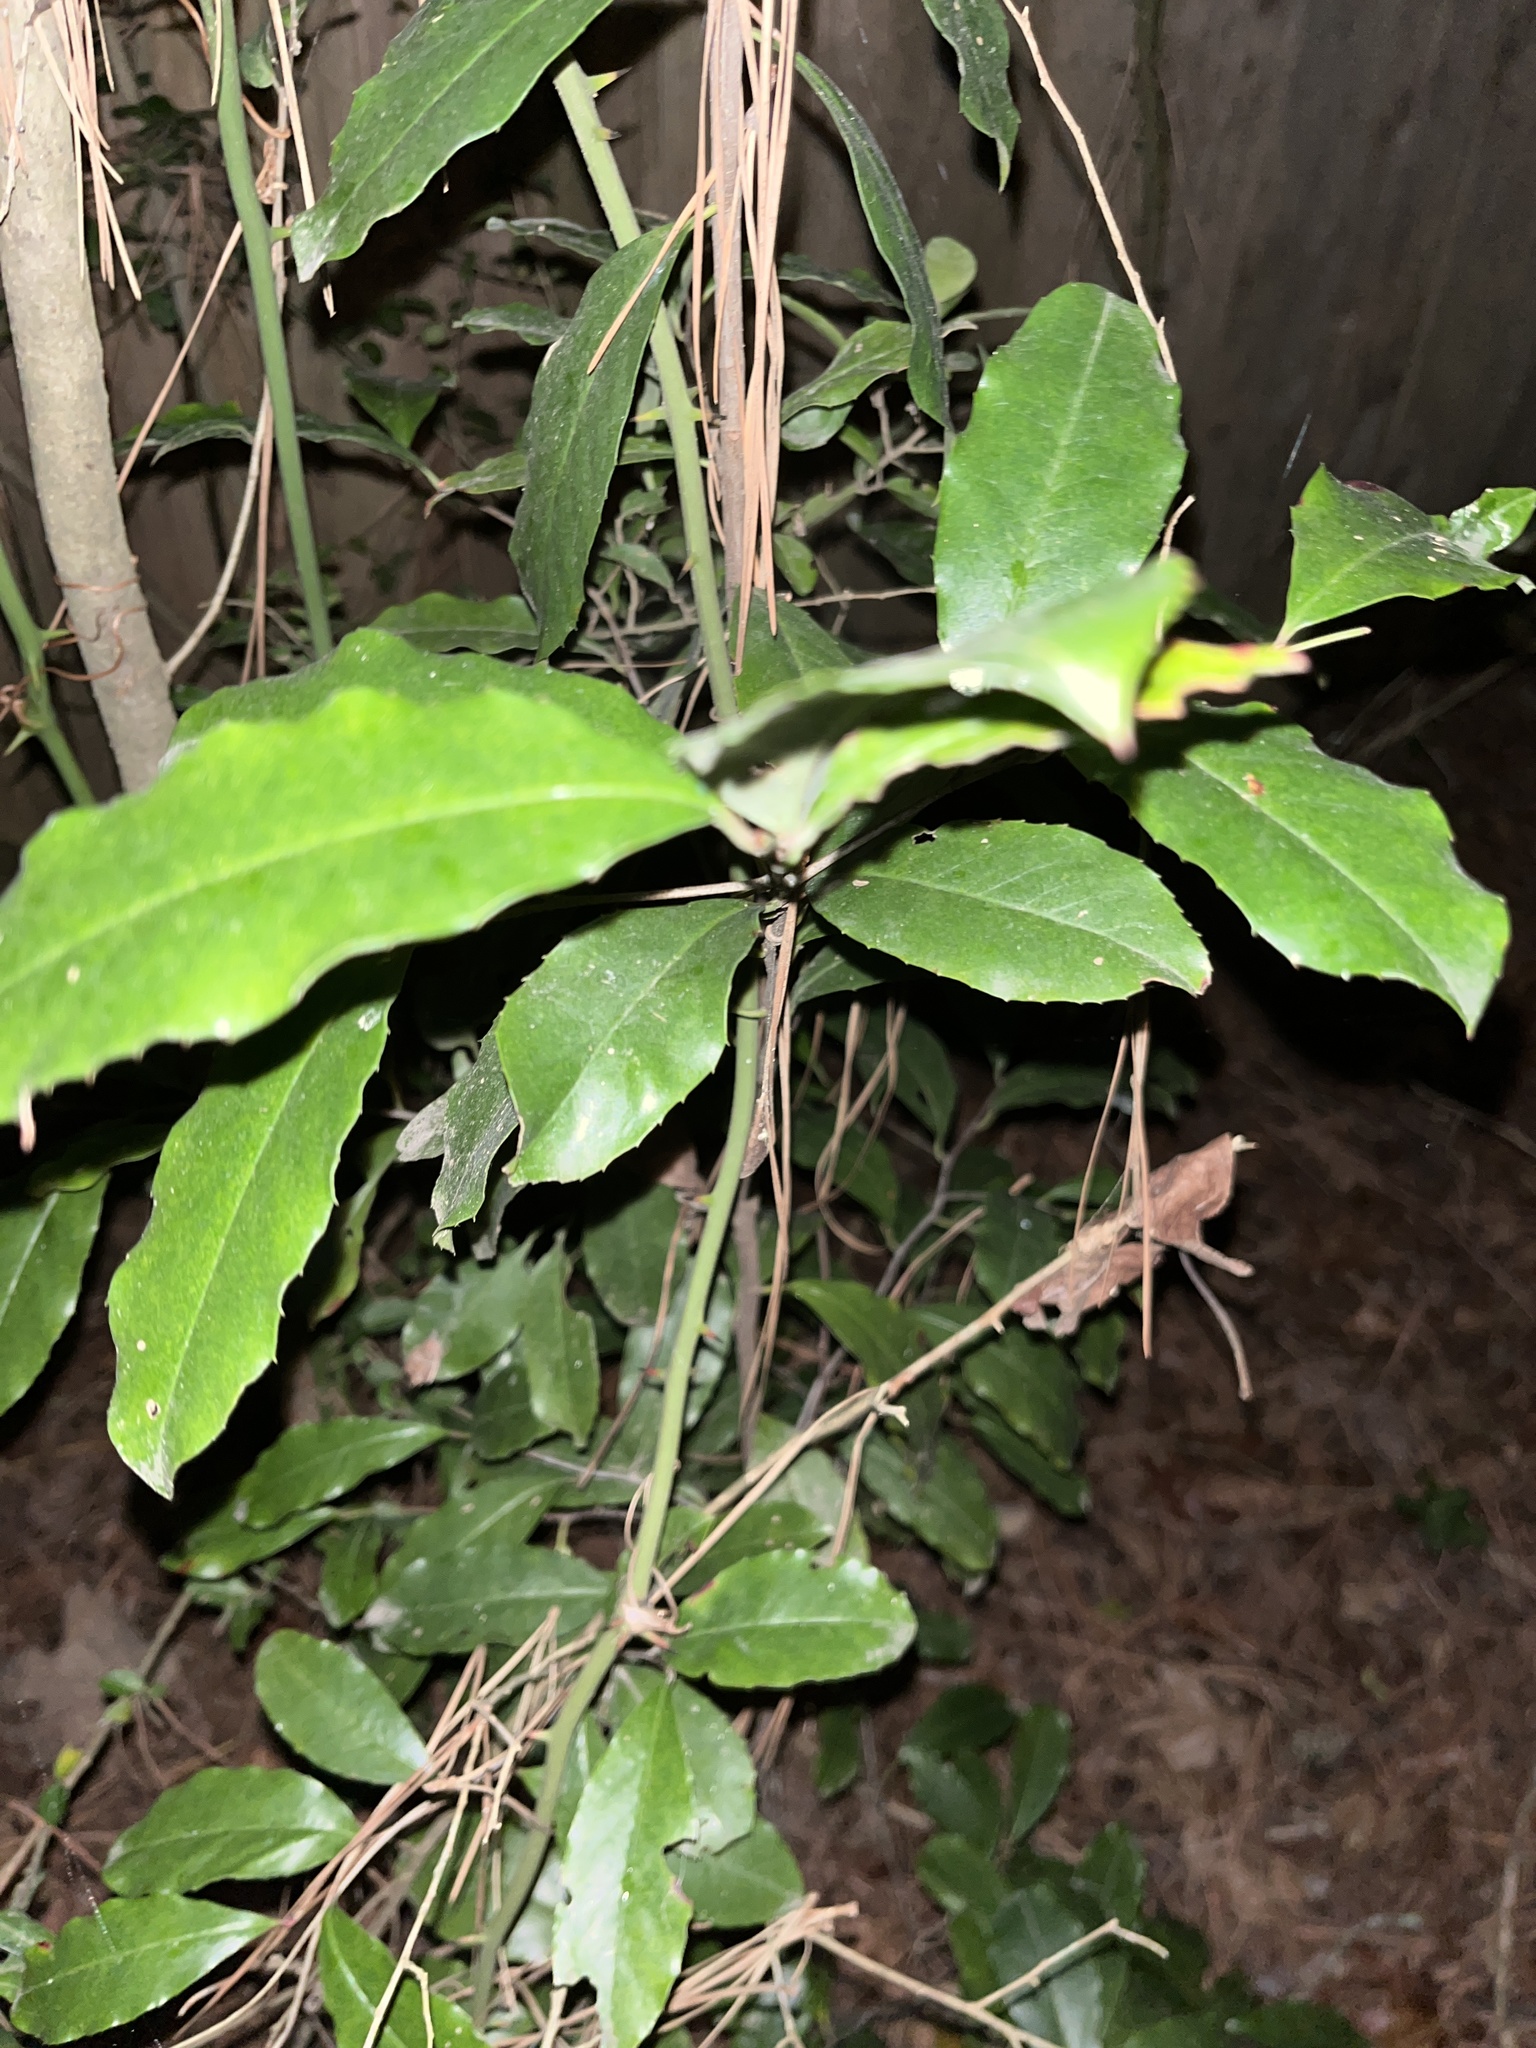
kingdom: Plantae
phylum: Tracheophyta
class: Magnoliopsida
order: Rosales
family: Rosaceae
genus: Prunus
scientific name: Prunus caroliniana
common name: Carolina laurel cherry
